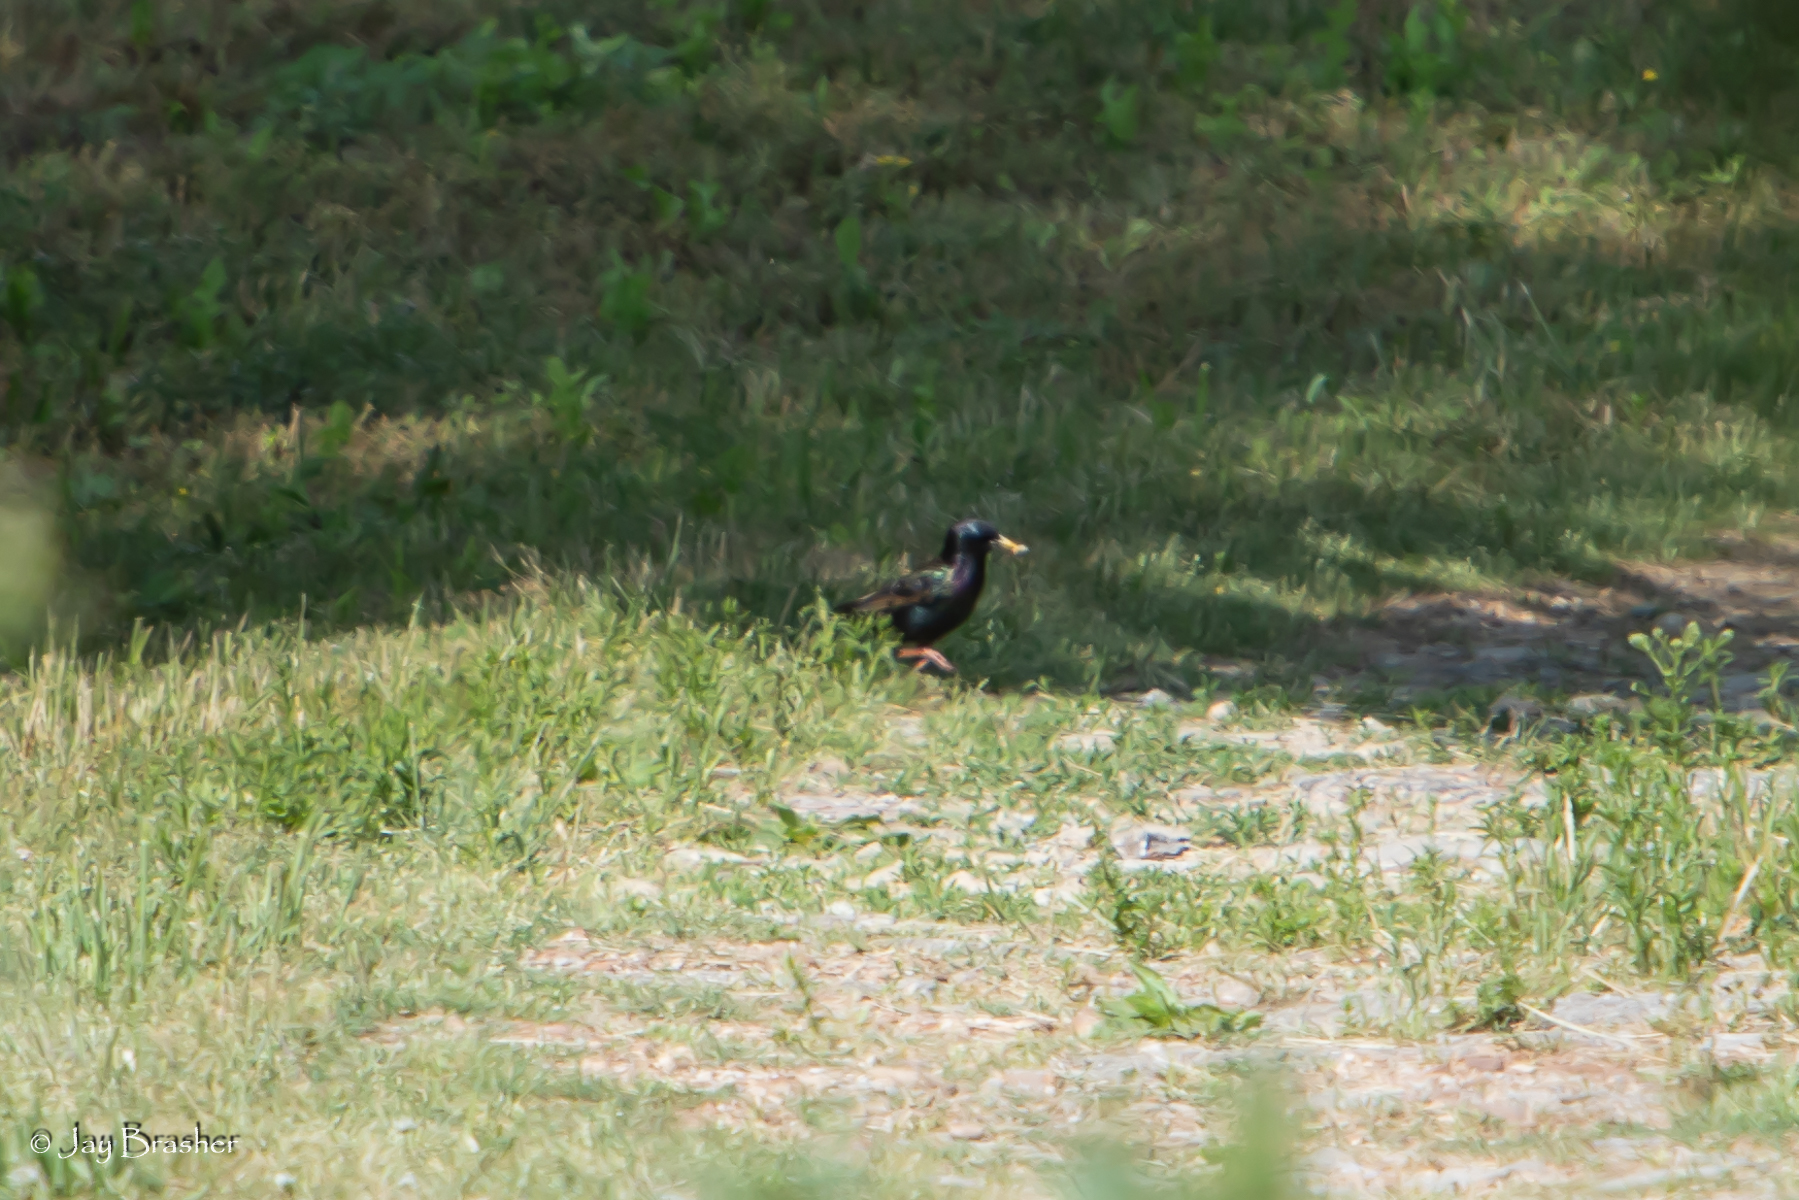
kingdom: Animalia
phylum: Chordata
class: Aves
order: Passeriformes
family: Sturnidae
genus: Sturnus
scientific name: Sturnus vulgaris
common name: Common starling
